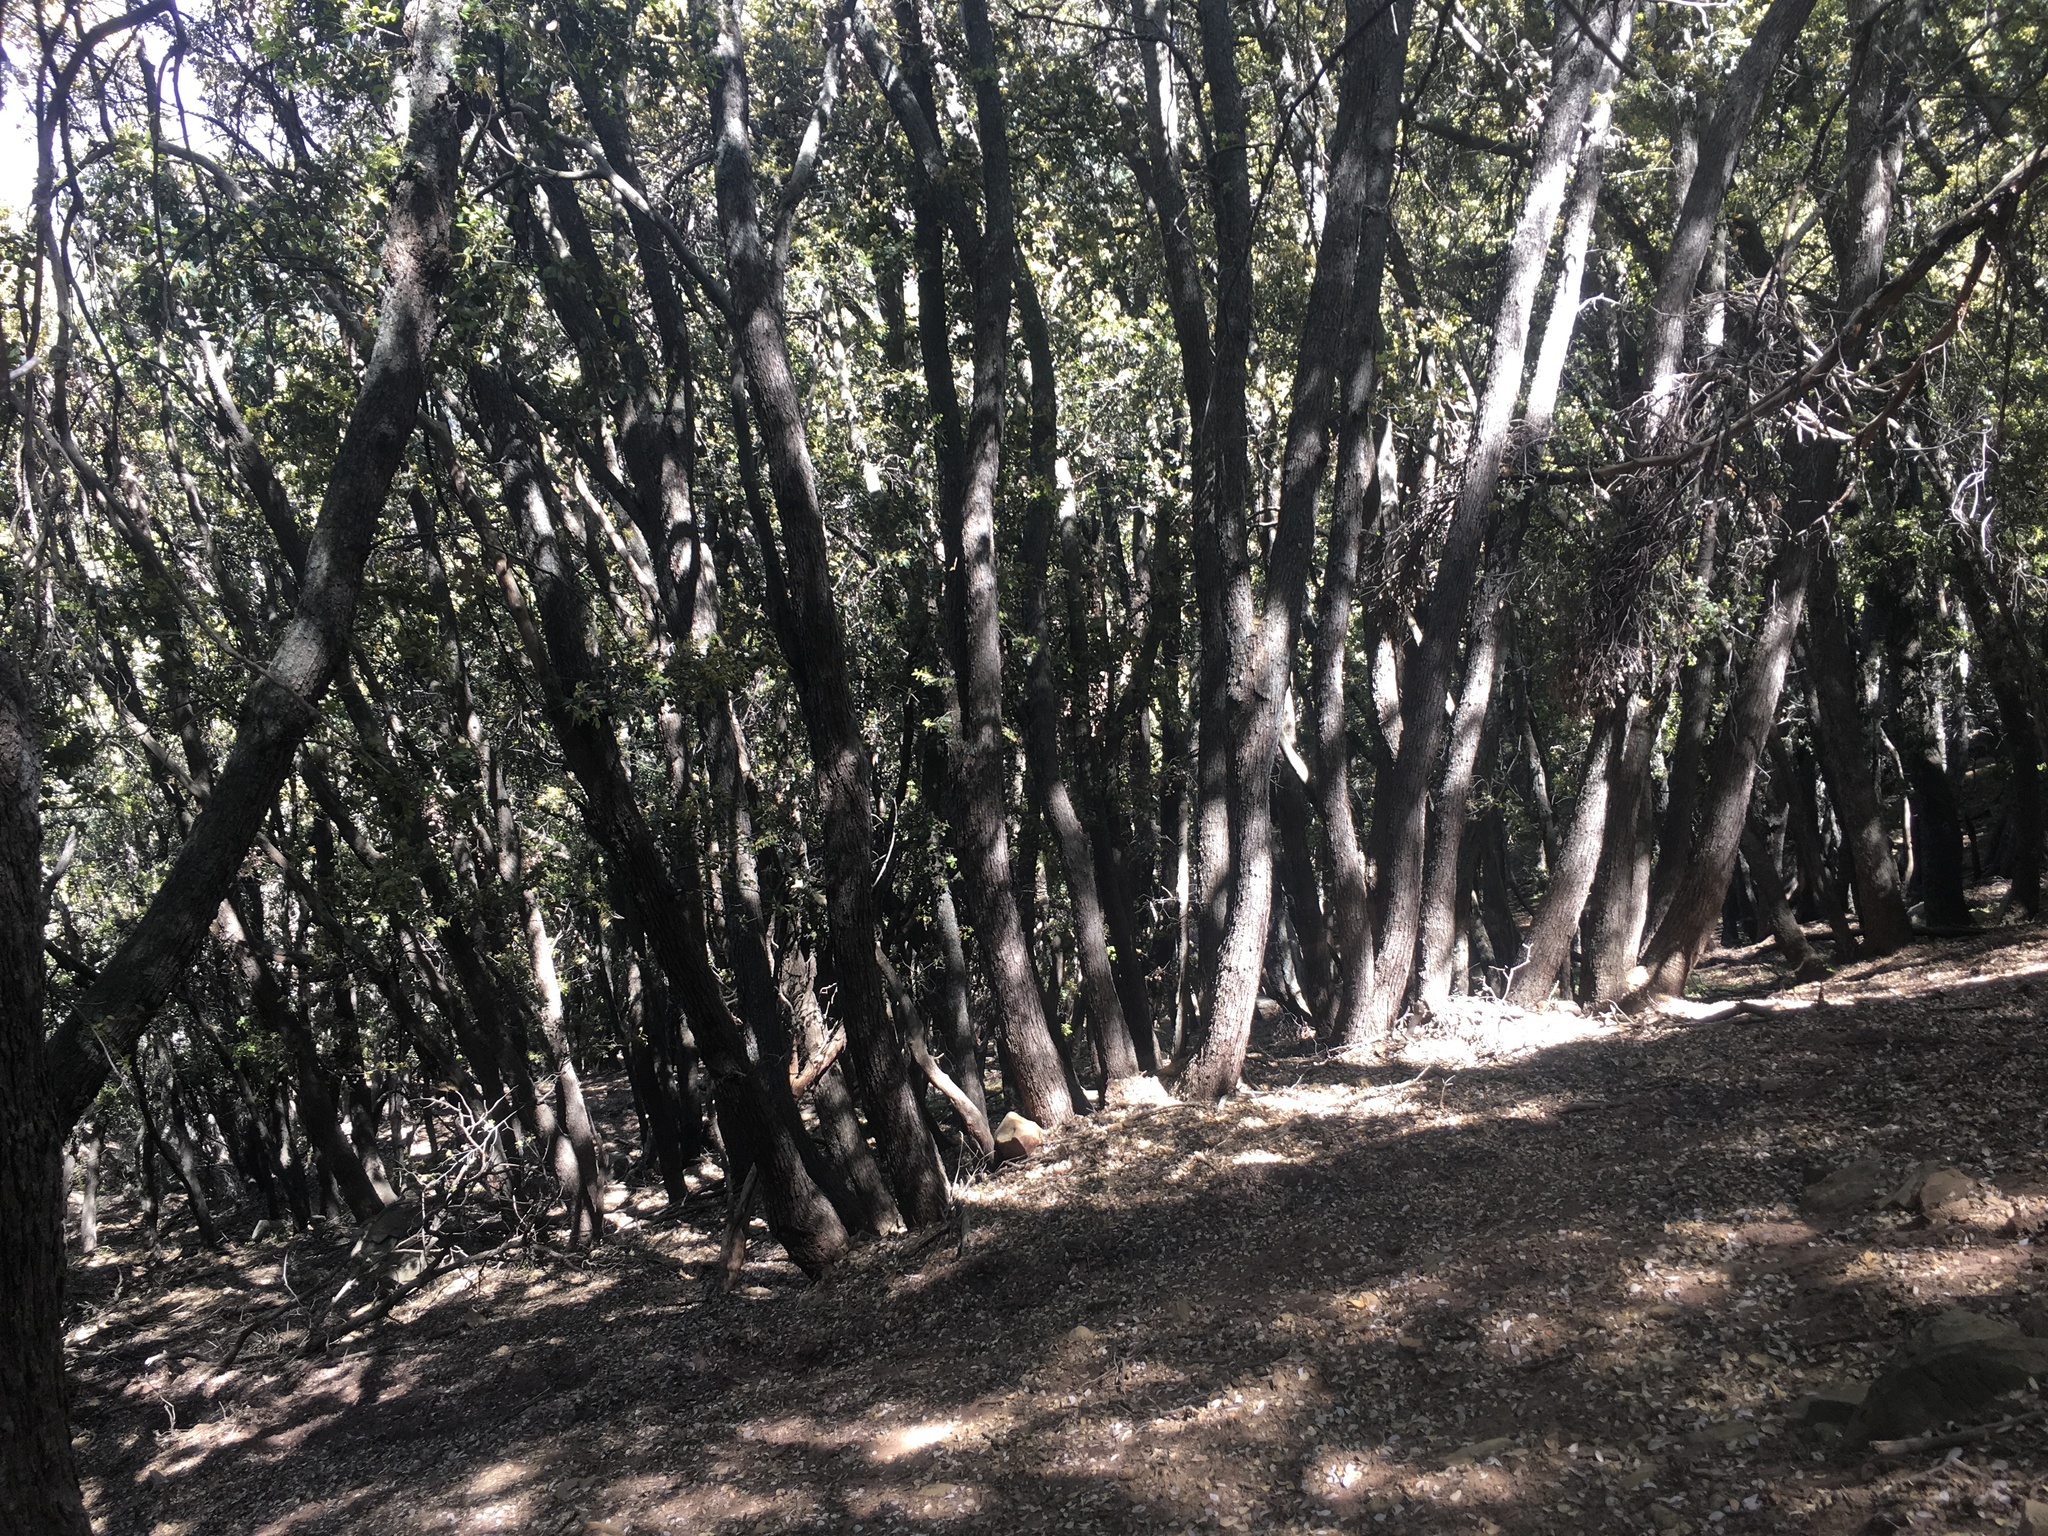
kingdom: Plantae
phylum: Tracheophyta
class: Magnoliopsida
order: Fagales
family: Fagaceae
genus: Quercus
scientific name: Quercus chrysolepis
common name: Canyon live oak
